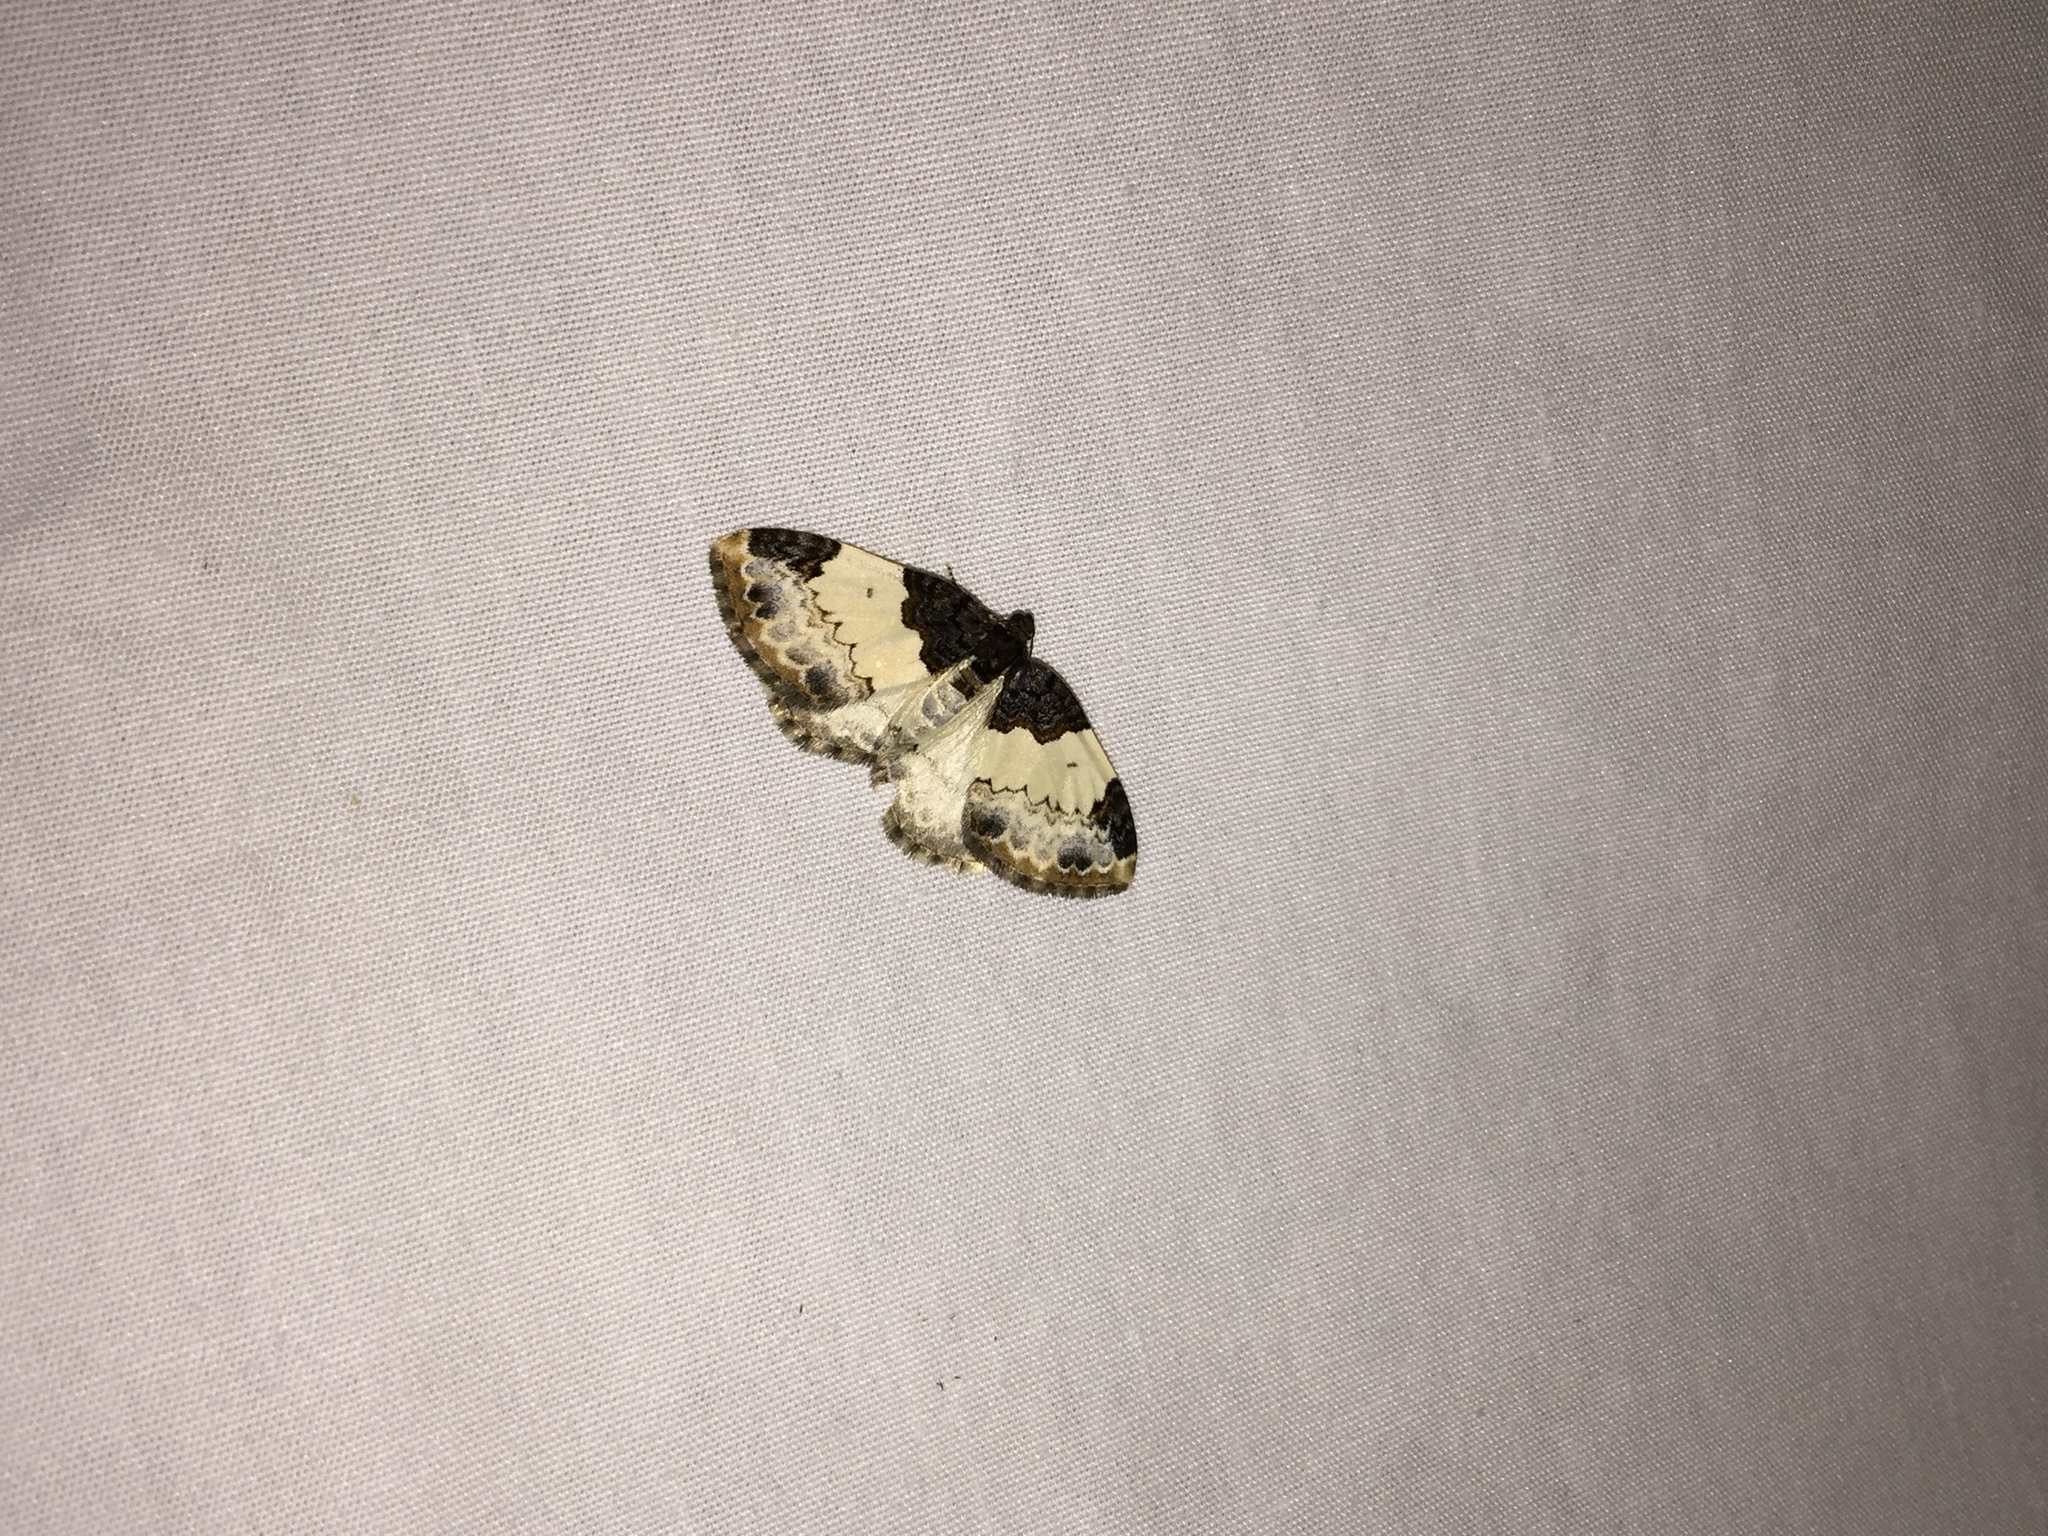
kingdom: Animalia
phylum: Arthropoda
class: Insecta
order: Lepidoptera
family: Geometridae
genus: Mesoleuca
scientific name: Mesoleuca ruficillata
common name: White-ribboned carpet moth
